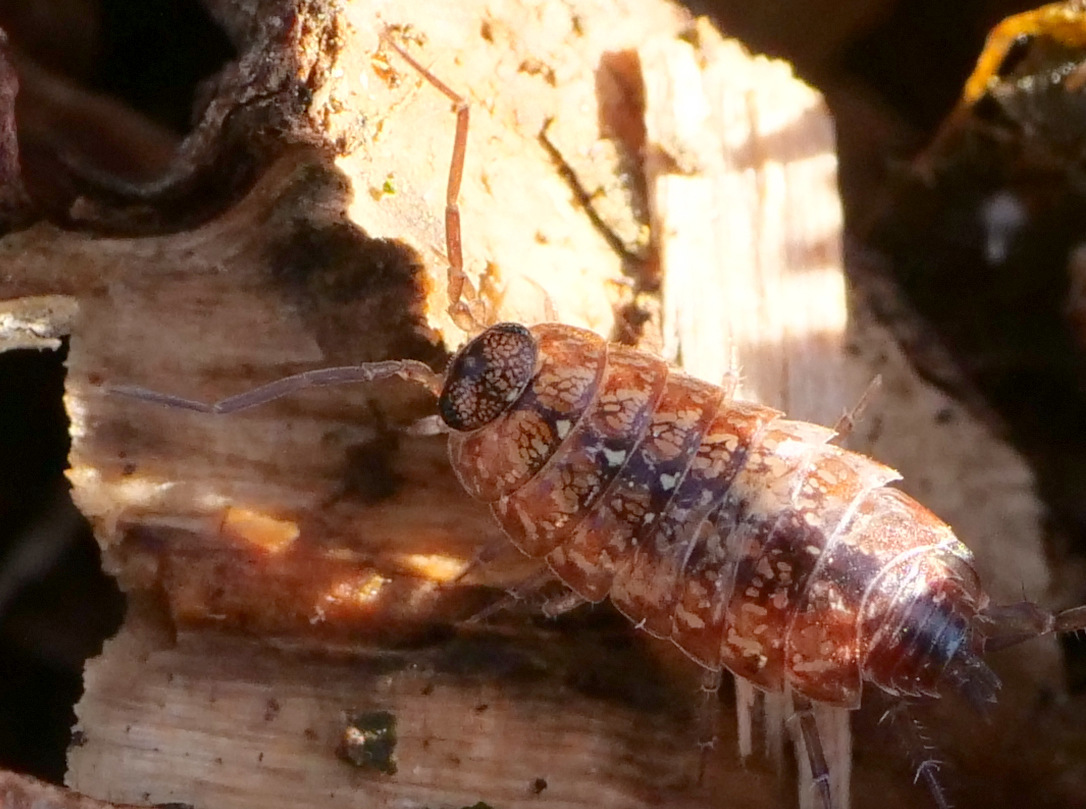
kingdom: Animalia
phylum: Arthropoda
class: Malacostraca
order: Isopoda
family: Philosciidae
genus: Philoscia
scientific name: Philoscia affinis
